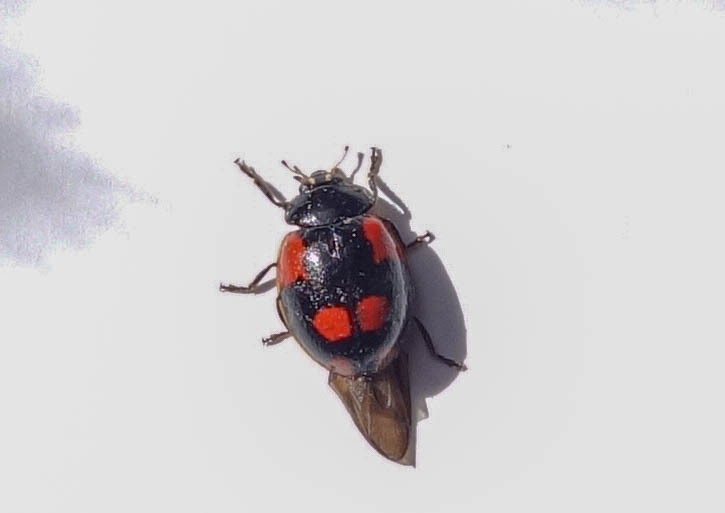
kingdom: Animalia
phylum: Arthropoda
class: Insecta
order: Coleoptera
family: Coccinellidae
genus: Adalia
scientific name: Adalia bipunctata
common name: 2-spot ladybird
